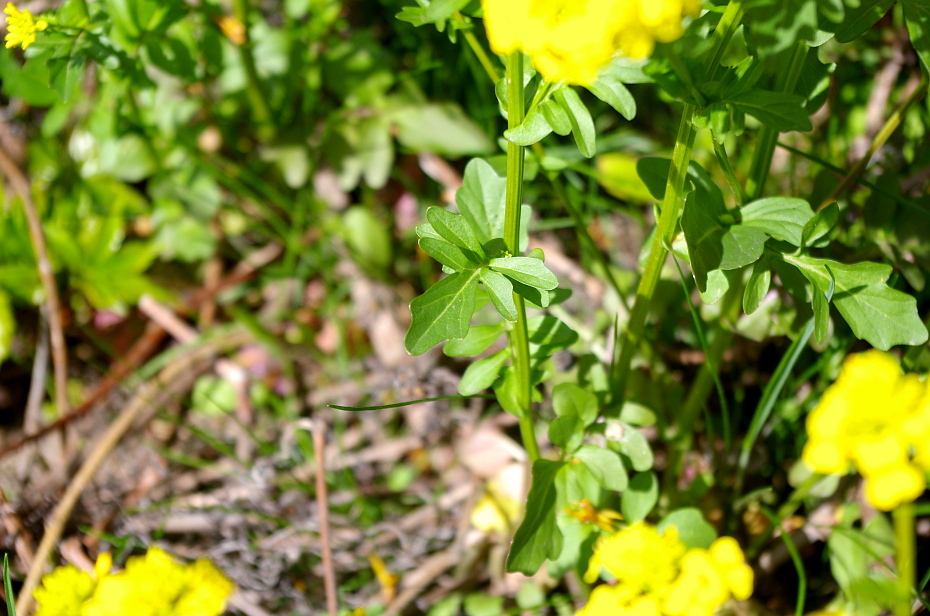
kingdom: Plantae
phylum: Tracheophyta
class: Magnoliopsida
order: Brassicales
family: Brassicaceae
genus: Barbarea
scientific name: Barbarea vulgaris
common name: Cressy-greens
